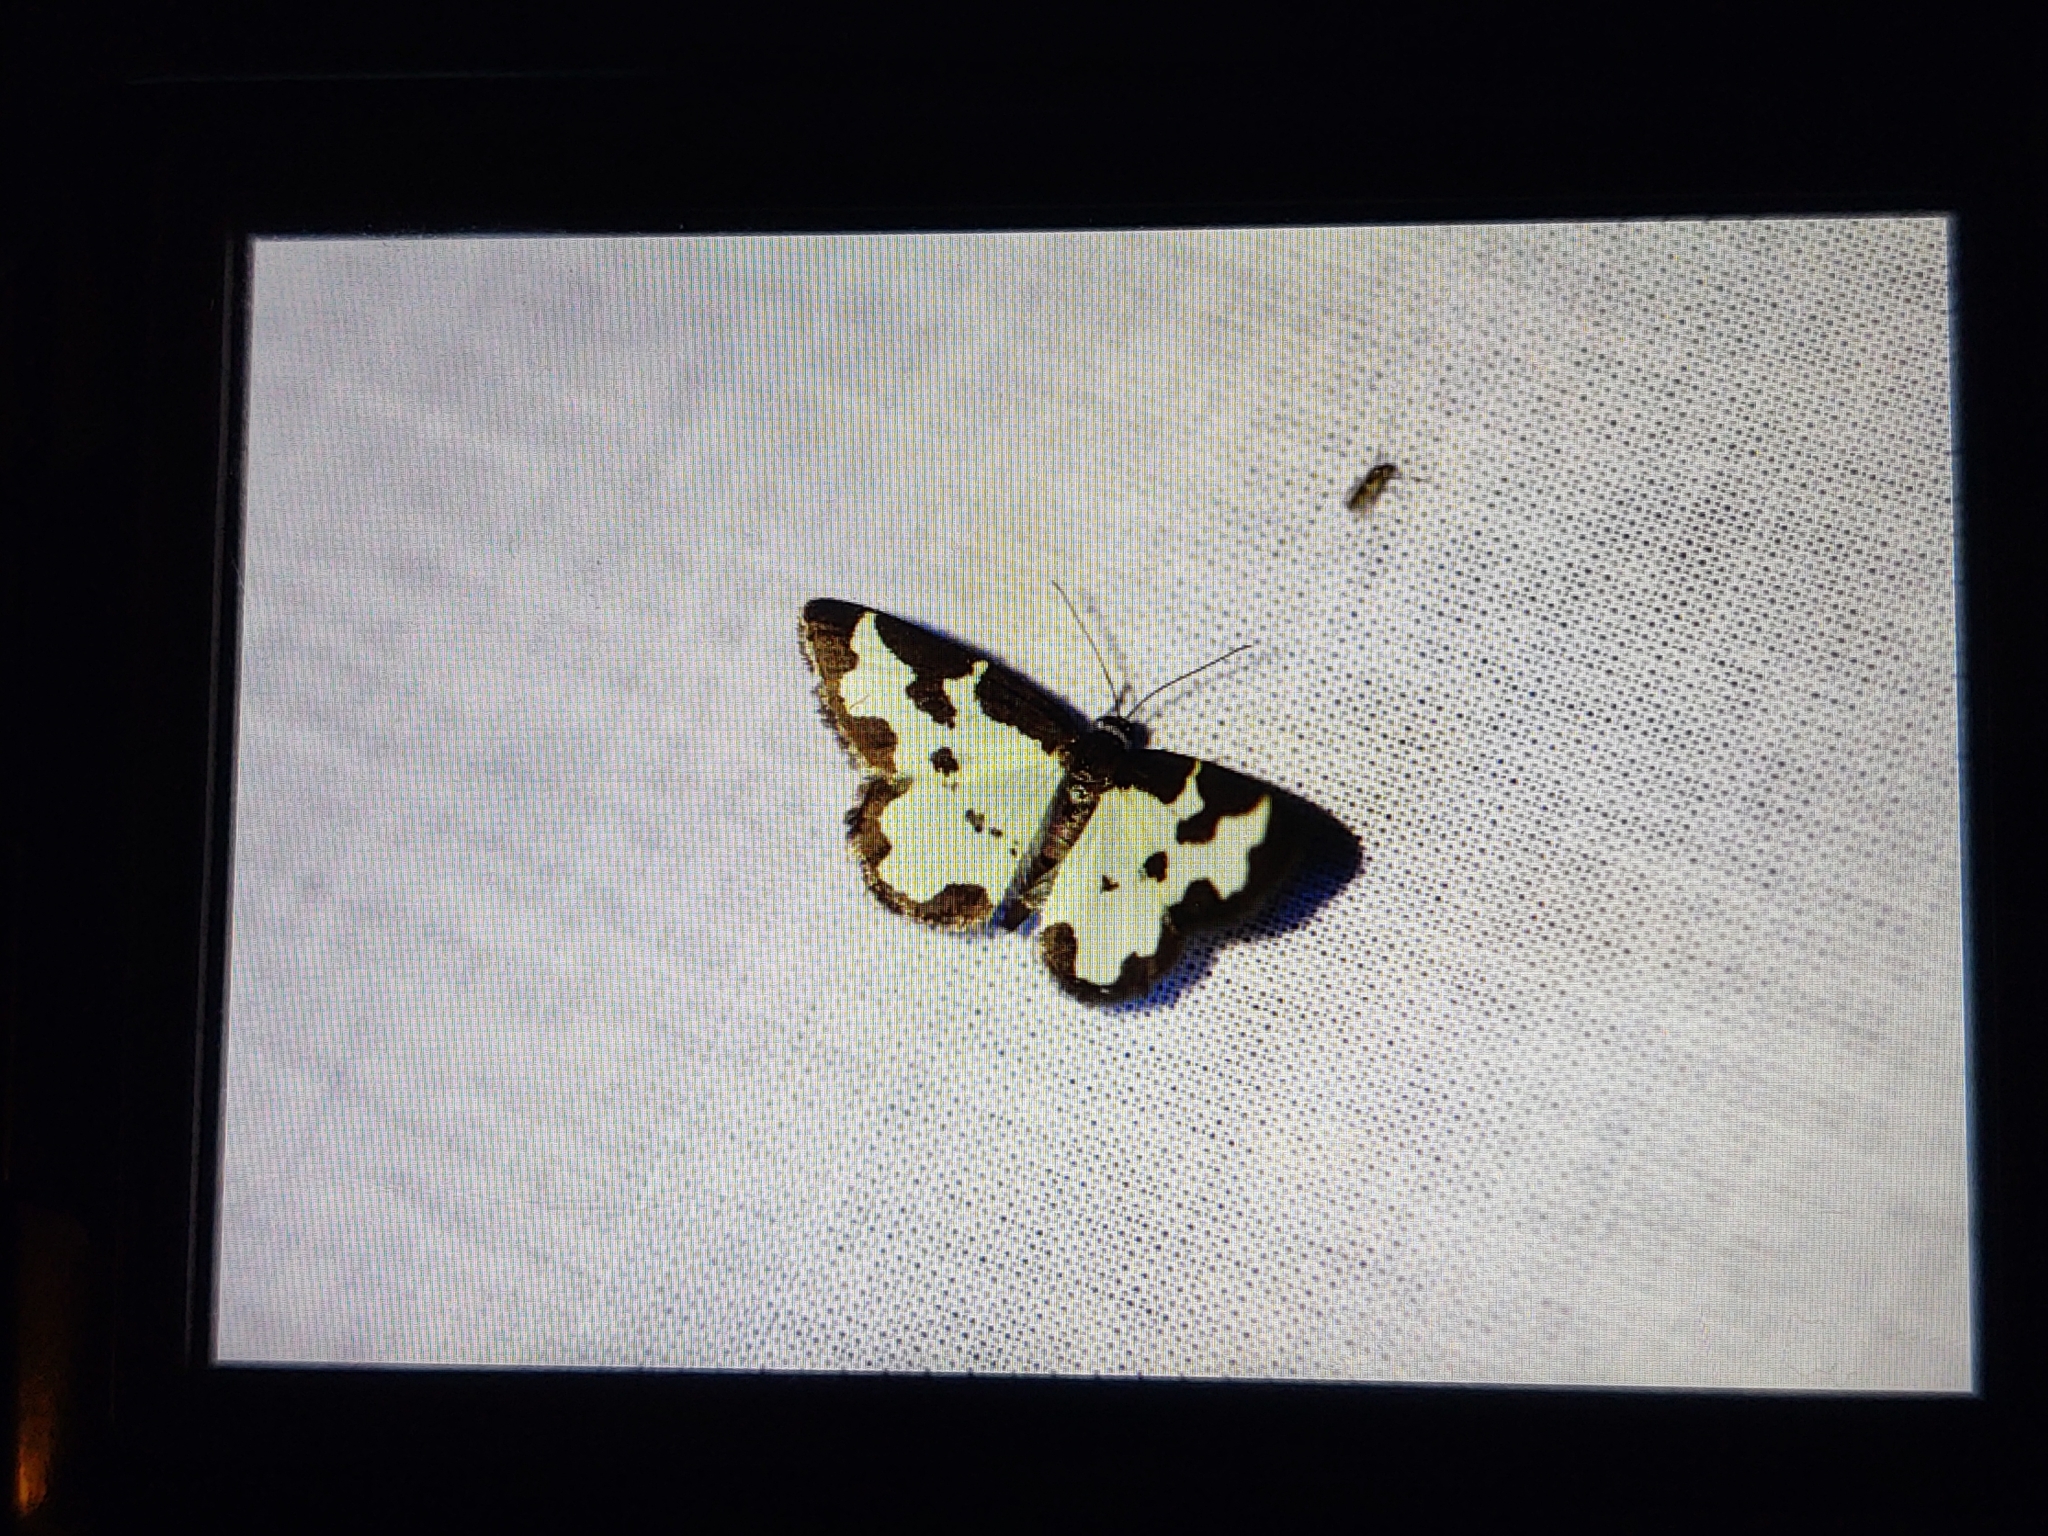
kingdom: Animalia
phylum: Arthropoda
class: Insecta
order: Lepidoptera
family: Geometridae
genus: Lomaspilis
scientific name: Lomaspilis marginata
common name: Clouded border
